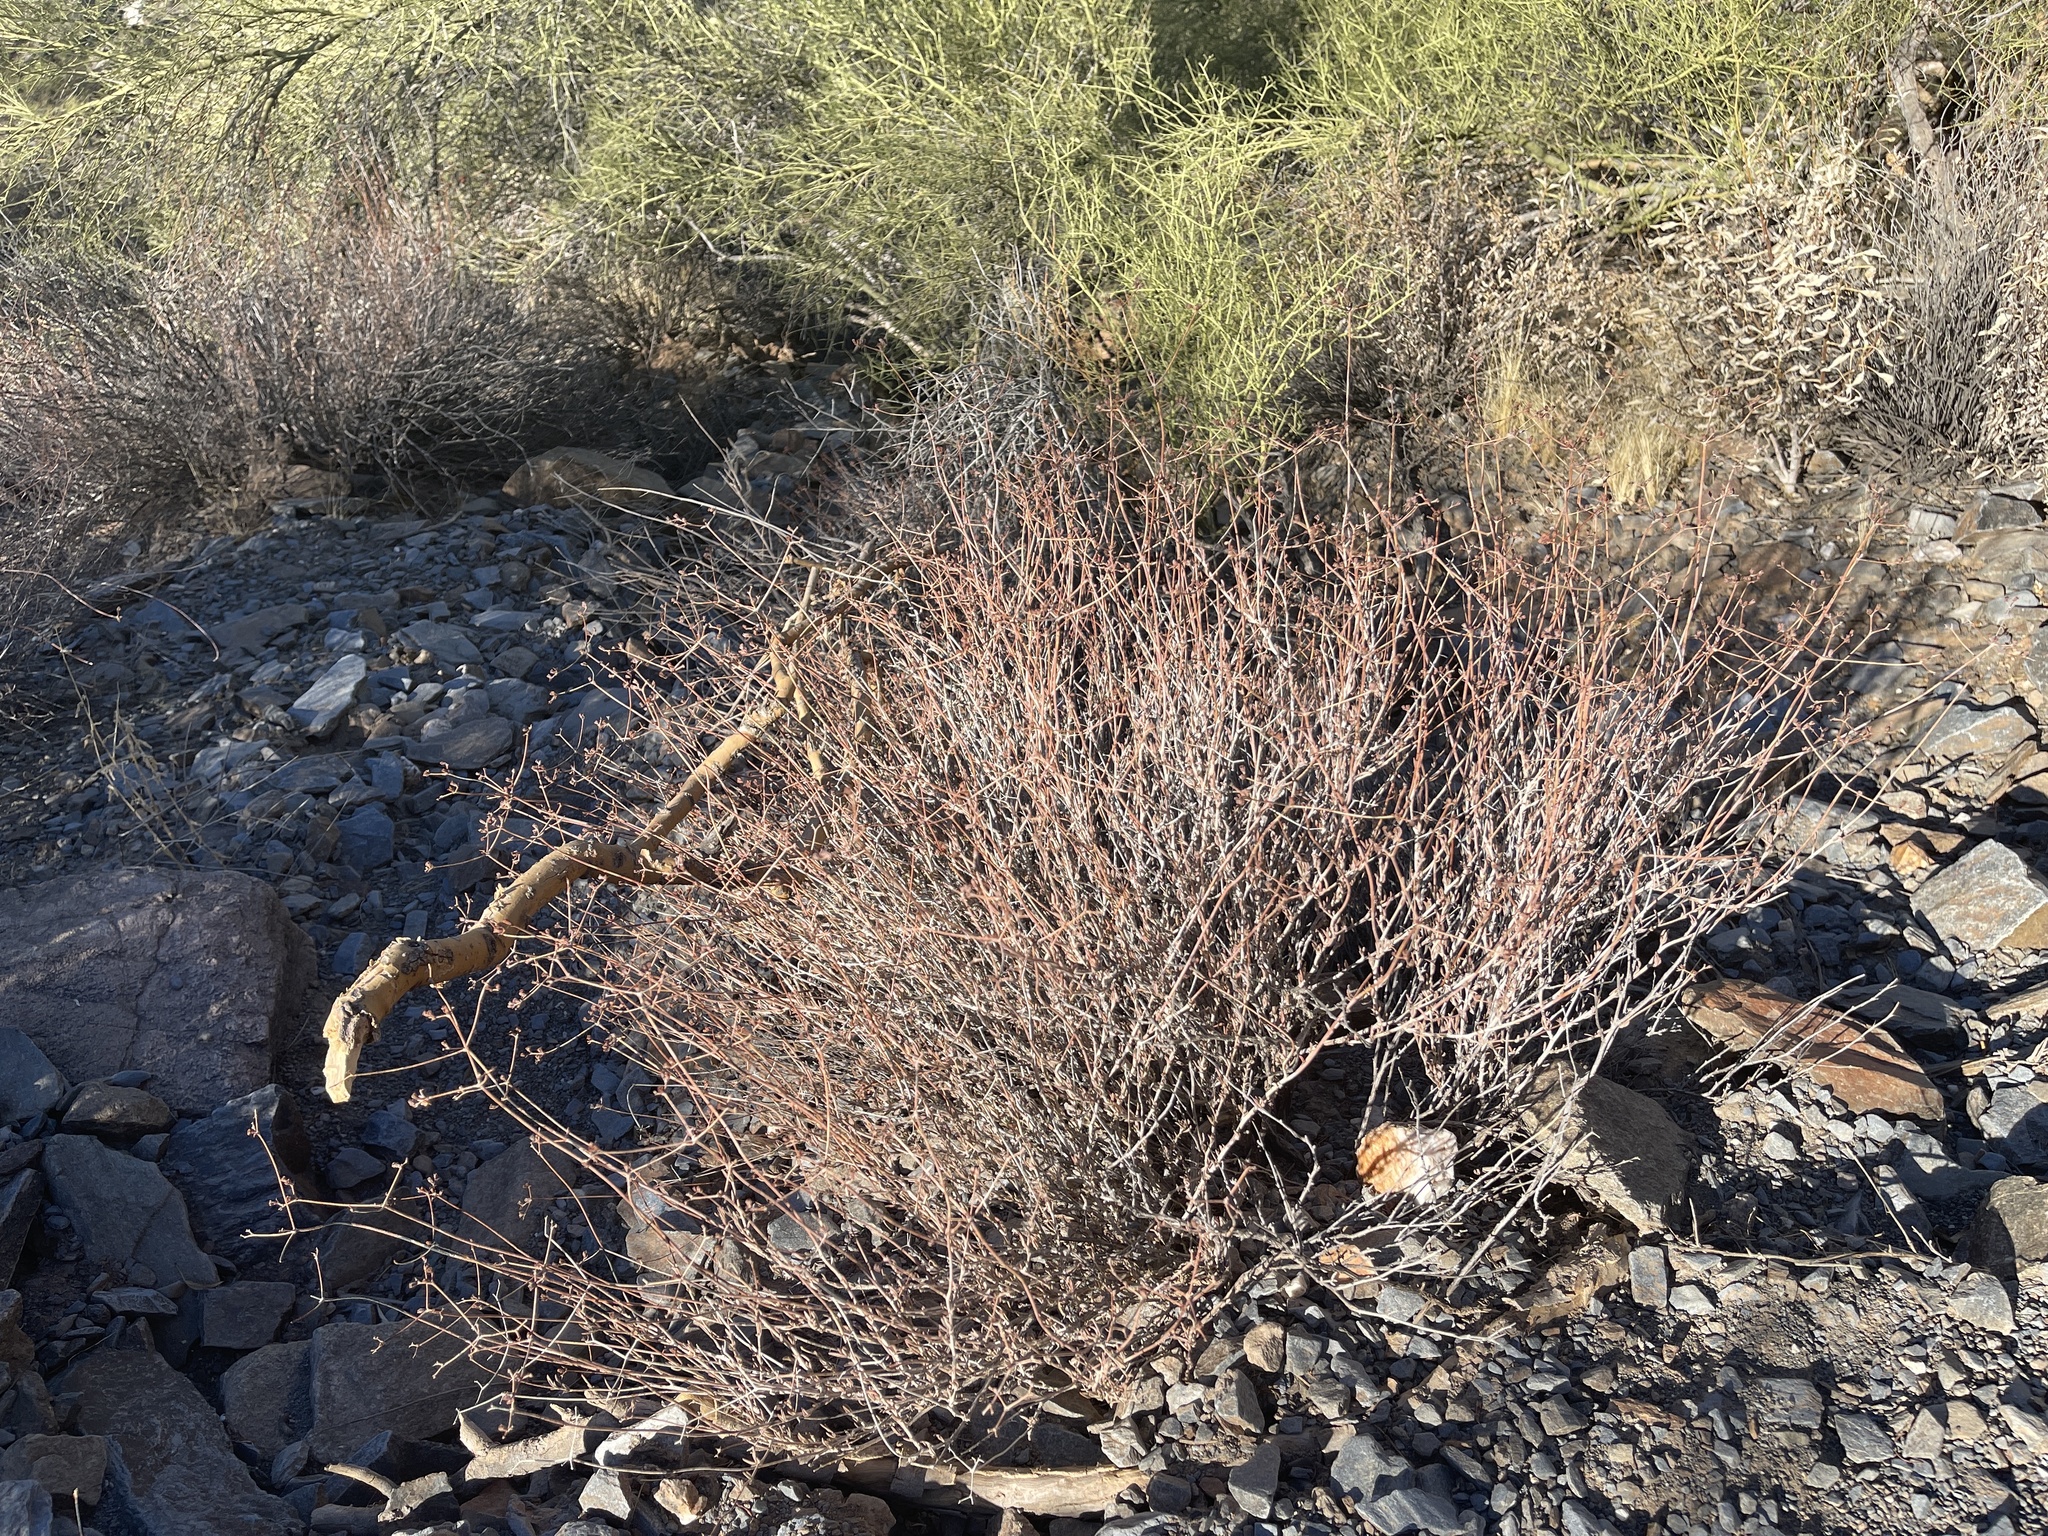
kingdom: Plantae
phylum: Tracheophyta
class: Magnoliopsida
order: Caryophyllales
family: Polygonaceae
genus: Eriogonum
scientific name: Eriogonum fasciculatum
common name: California wild buckwheat
